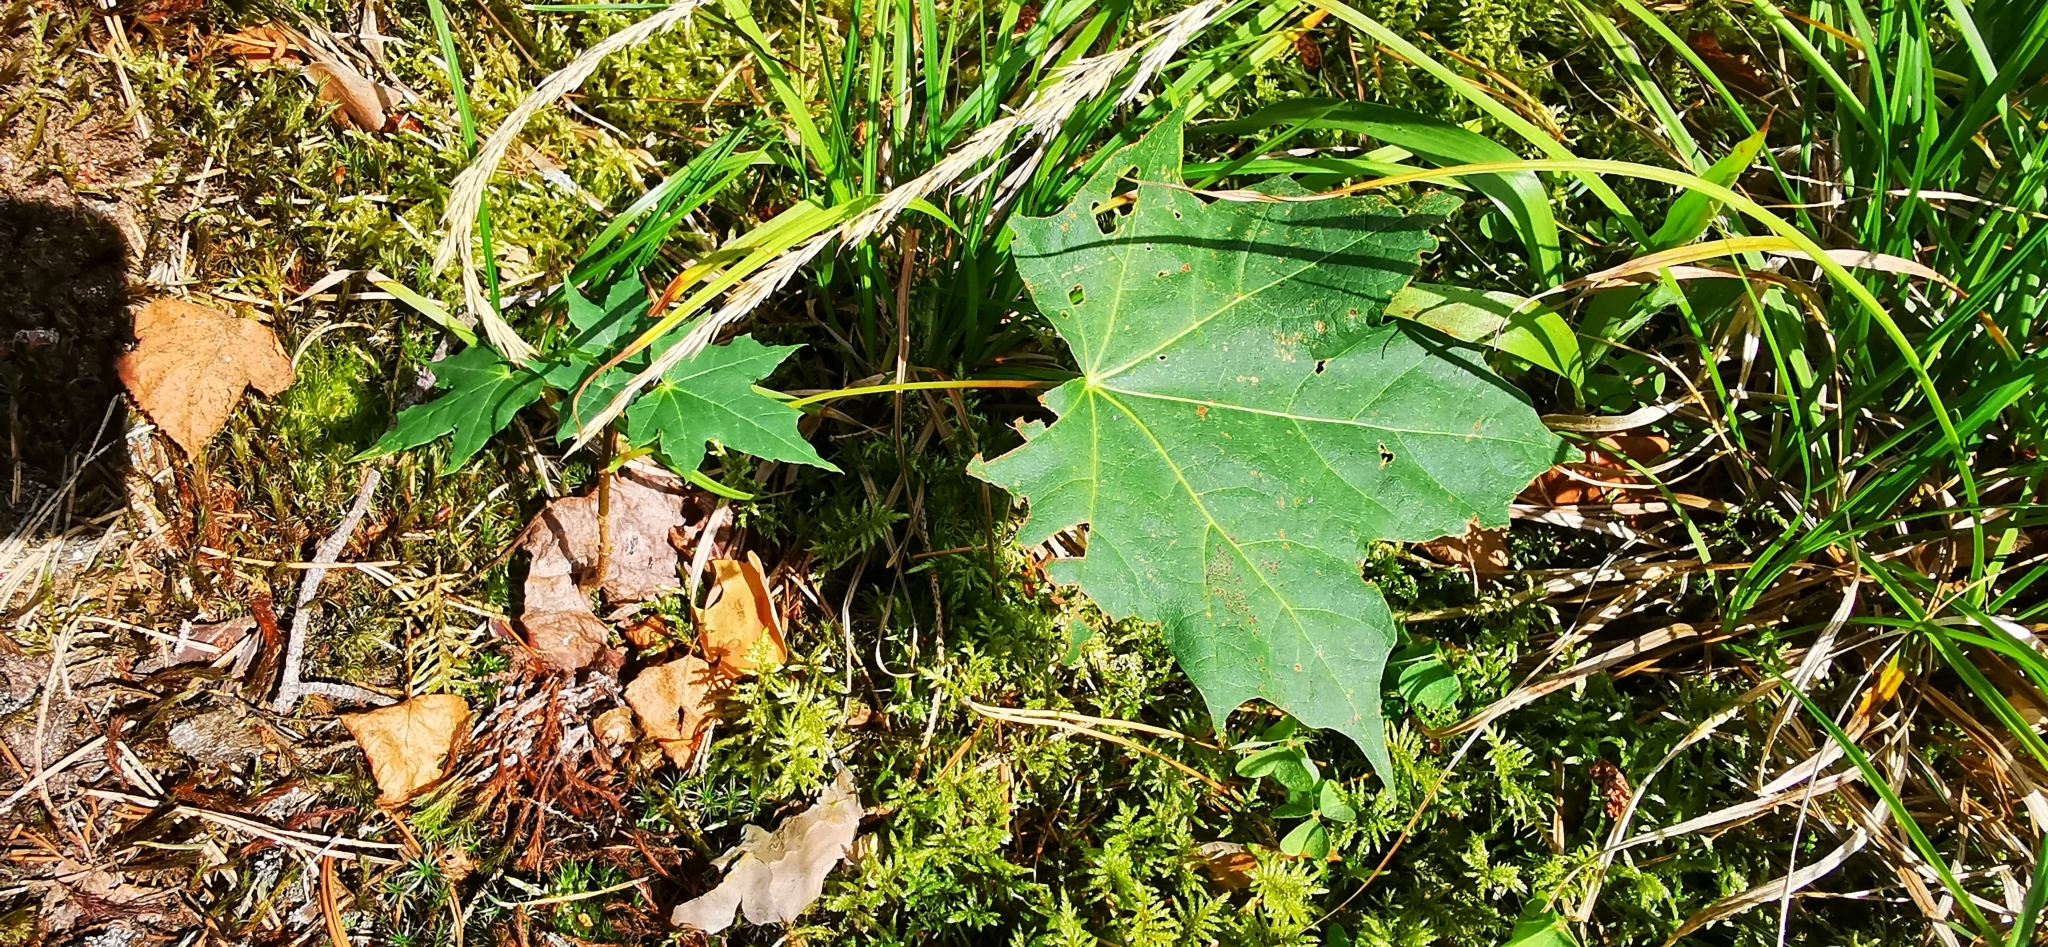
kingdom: Plantae
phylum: Tracheophyta
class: Magnoliopsida
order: Sapindales
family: Sapindaceae
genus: Acer
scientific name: Acer platanoides
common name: Norway maple
